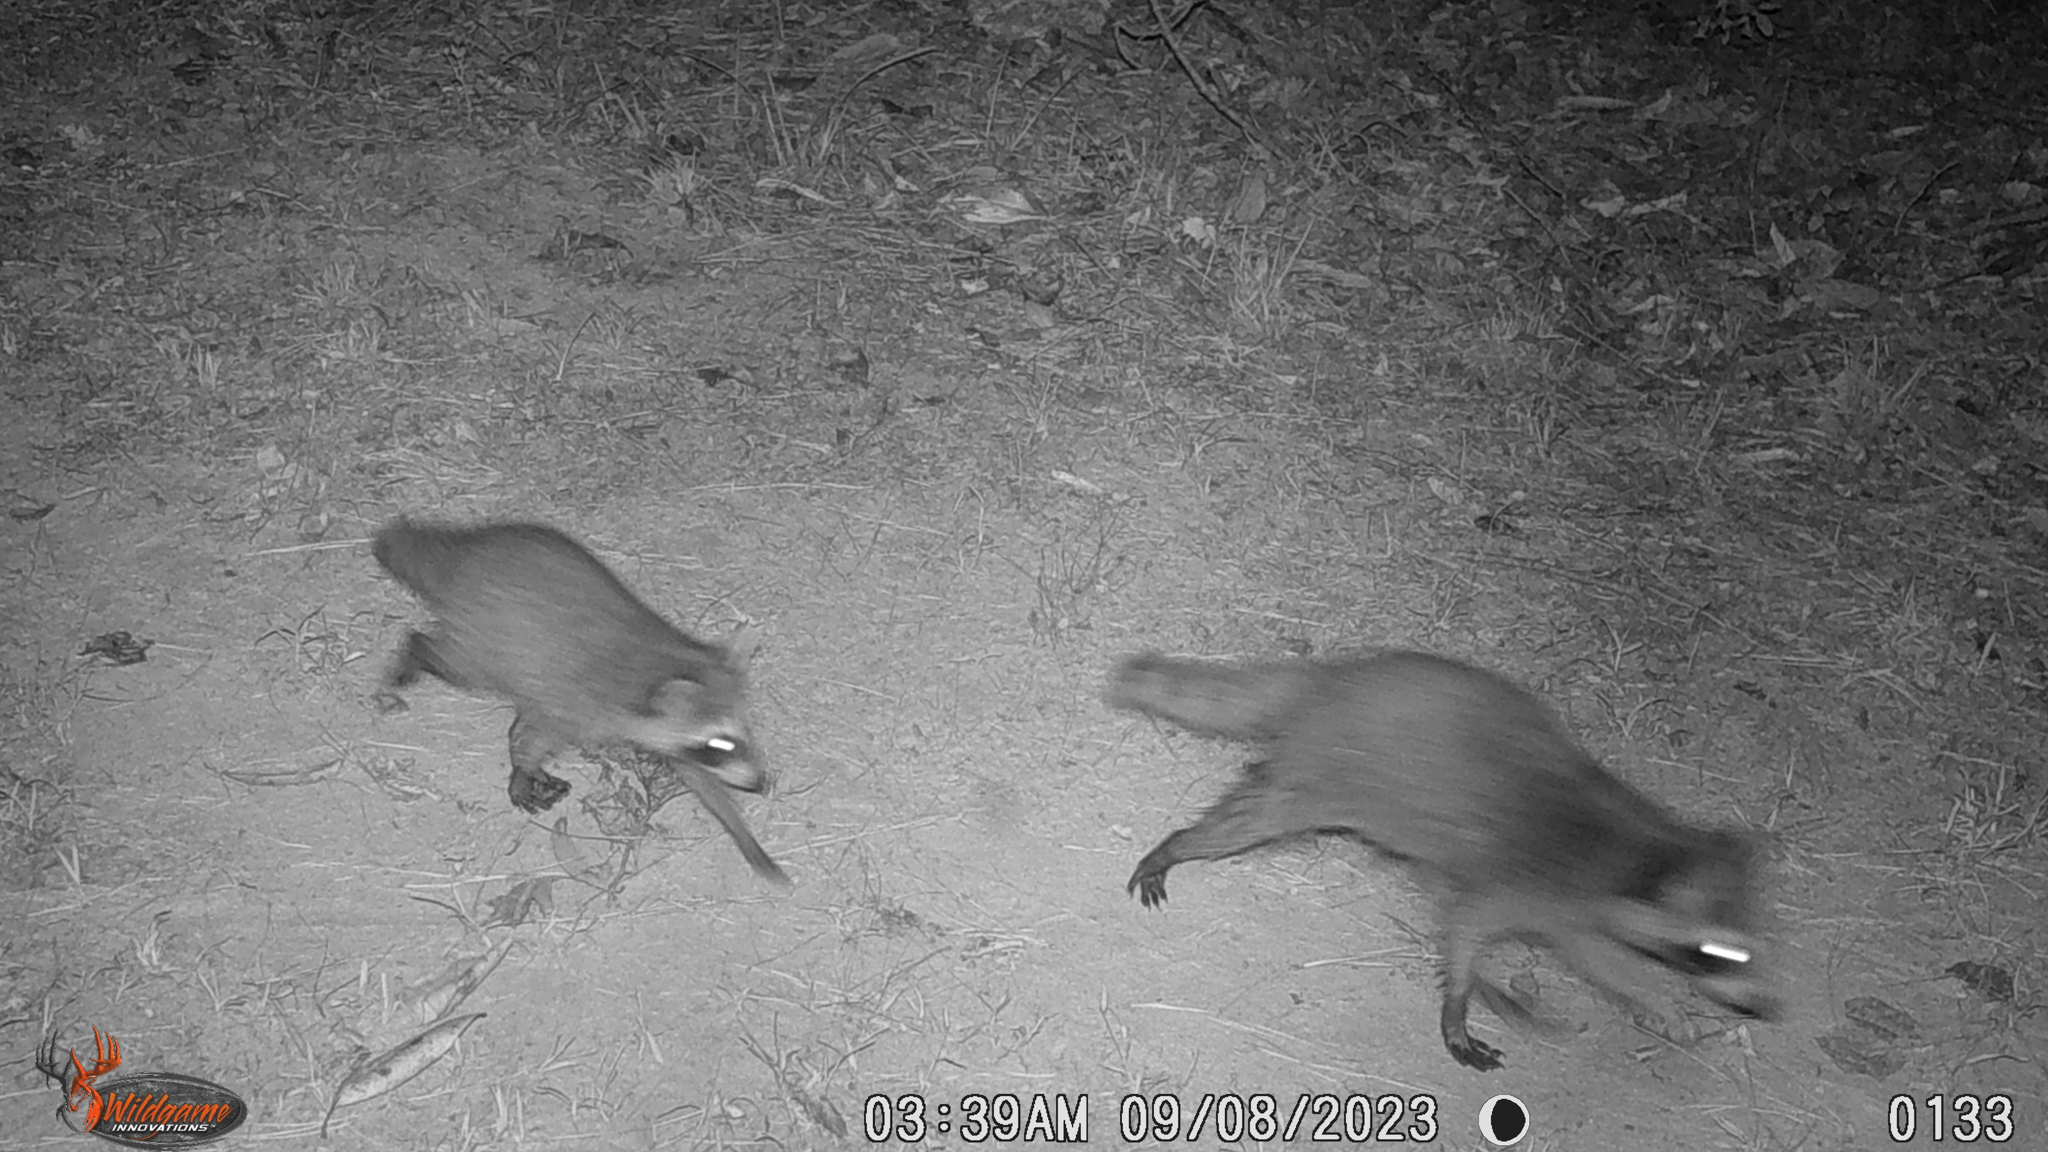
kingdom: Animalia
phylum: Chordata
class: Mammalia
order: Carnivora
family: Procyonidae
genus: Procyon
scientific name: Procyon lotor
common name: Raccoon
